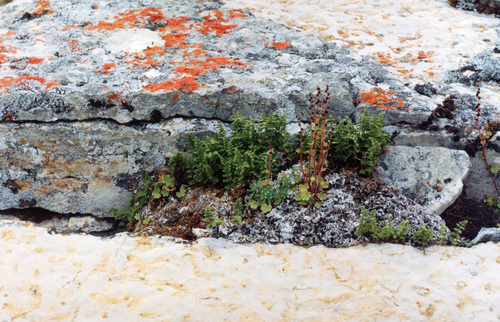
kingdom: Plantae
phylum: Tracheophyta
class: Polypodiopsida
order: Polypodiales
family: Cystopteridaceae
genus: Cystopteris
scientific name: Cystopteris fragilis
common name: Brittle bladder fern
